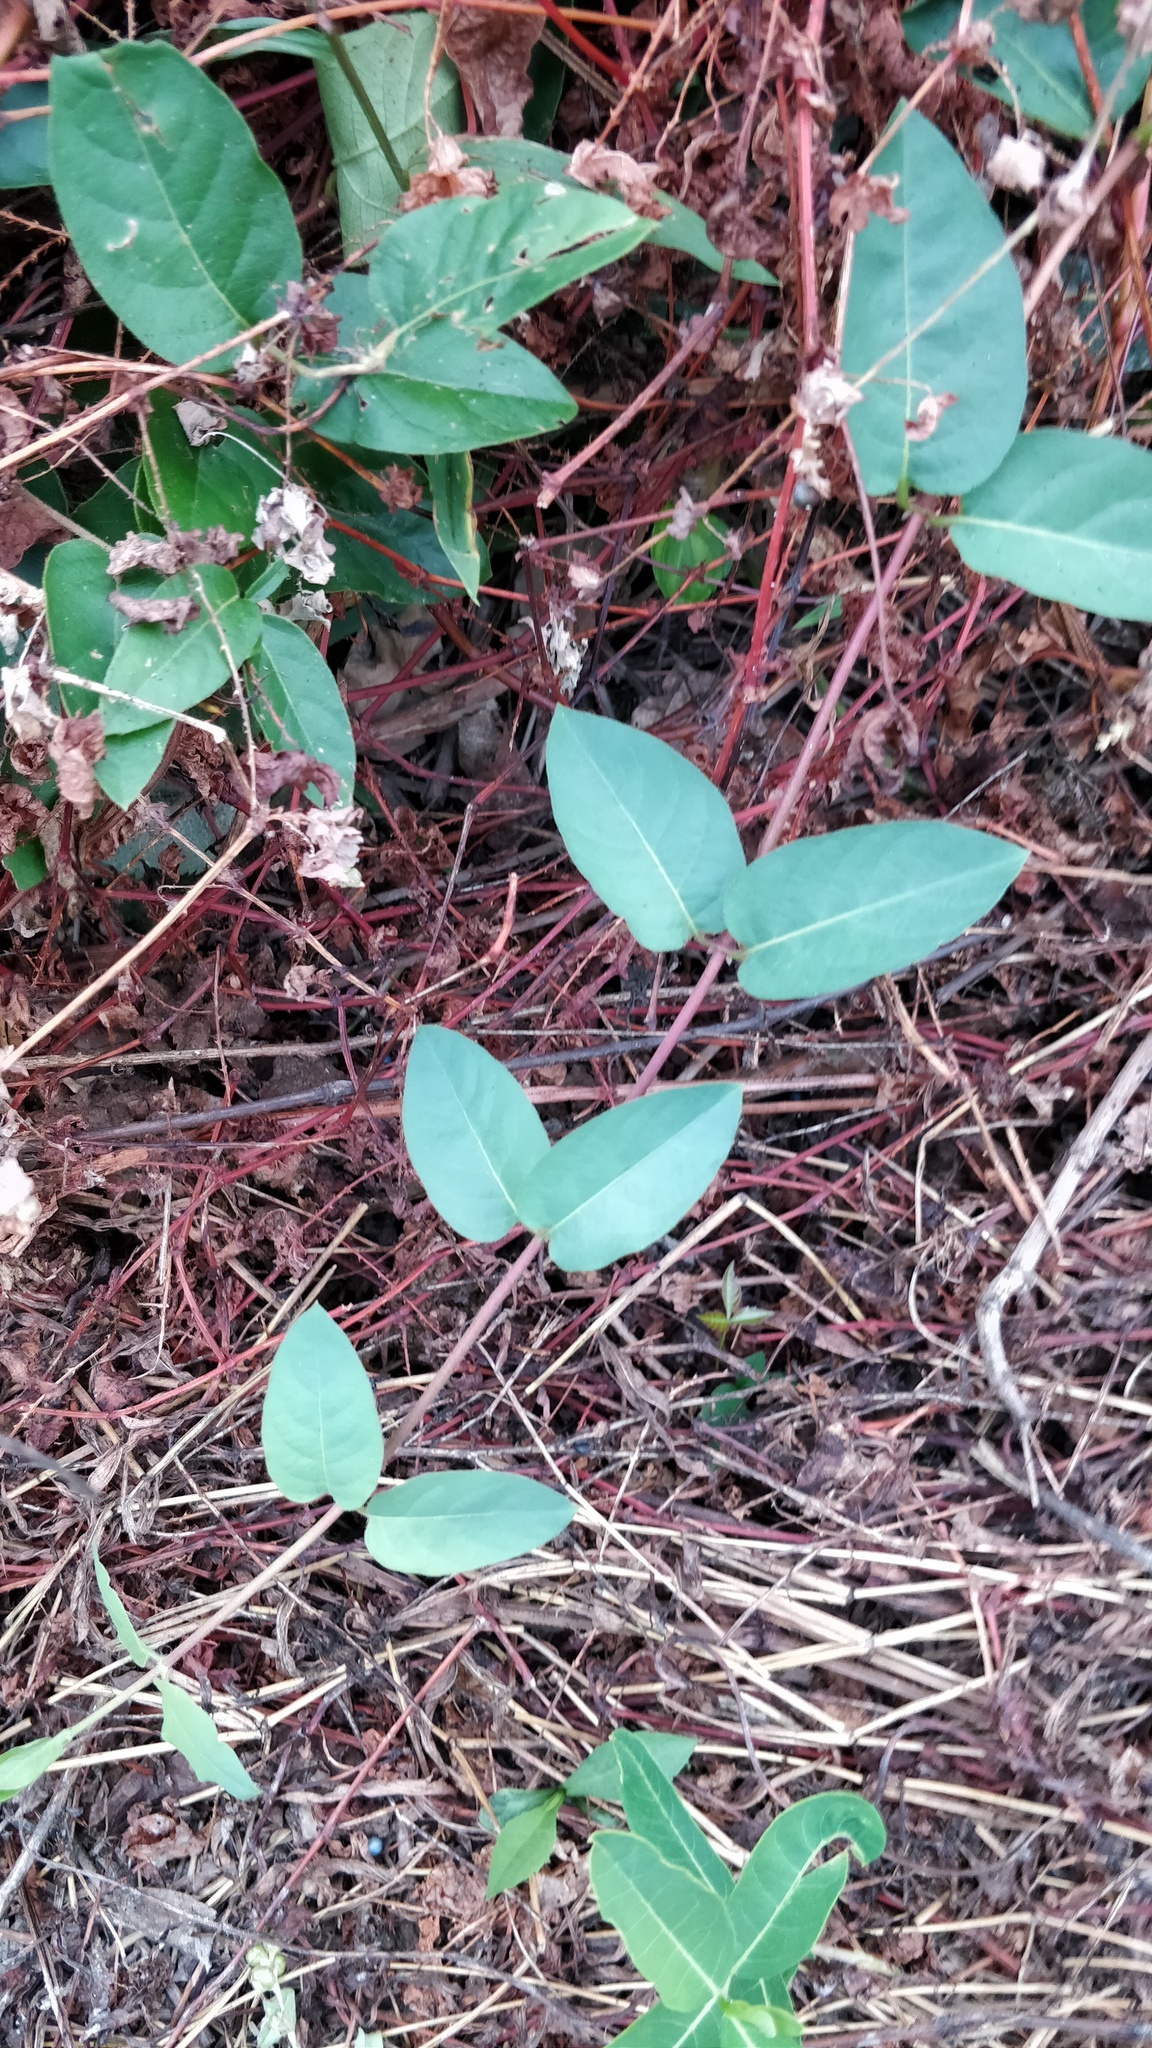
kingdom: Plantae
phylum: Tracheophyta
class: Magnoliopsida
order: Dipsacales
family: Caprifoliaceae
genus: Lonicera
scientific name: Lonicera japonica
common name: Japanese honeysuckle
